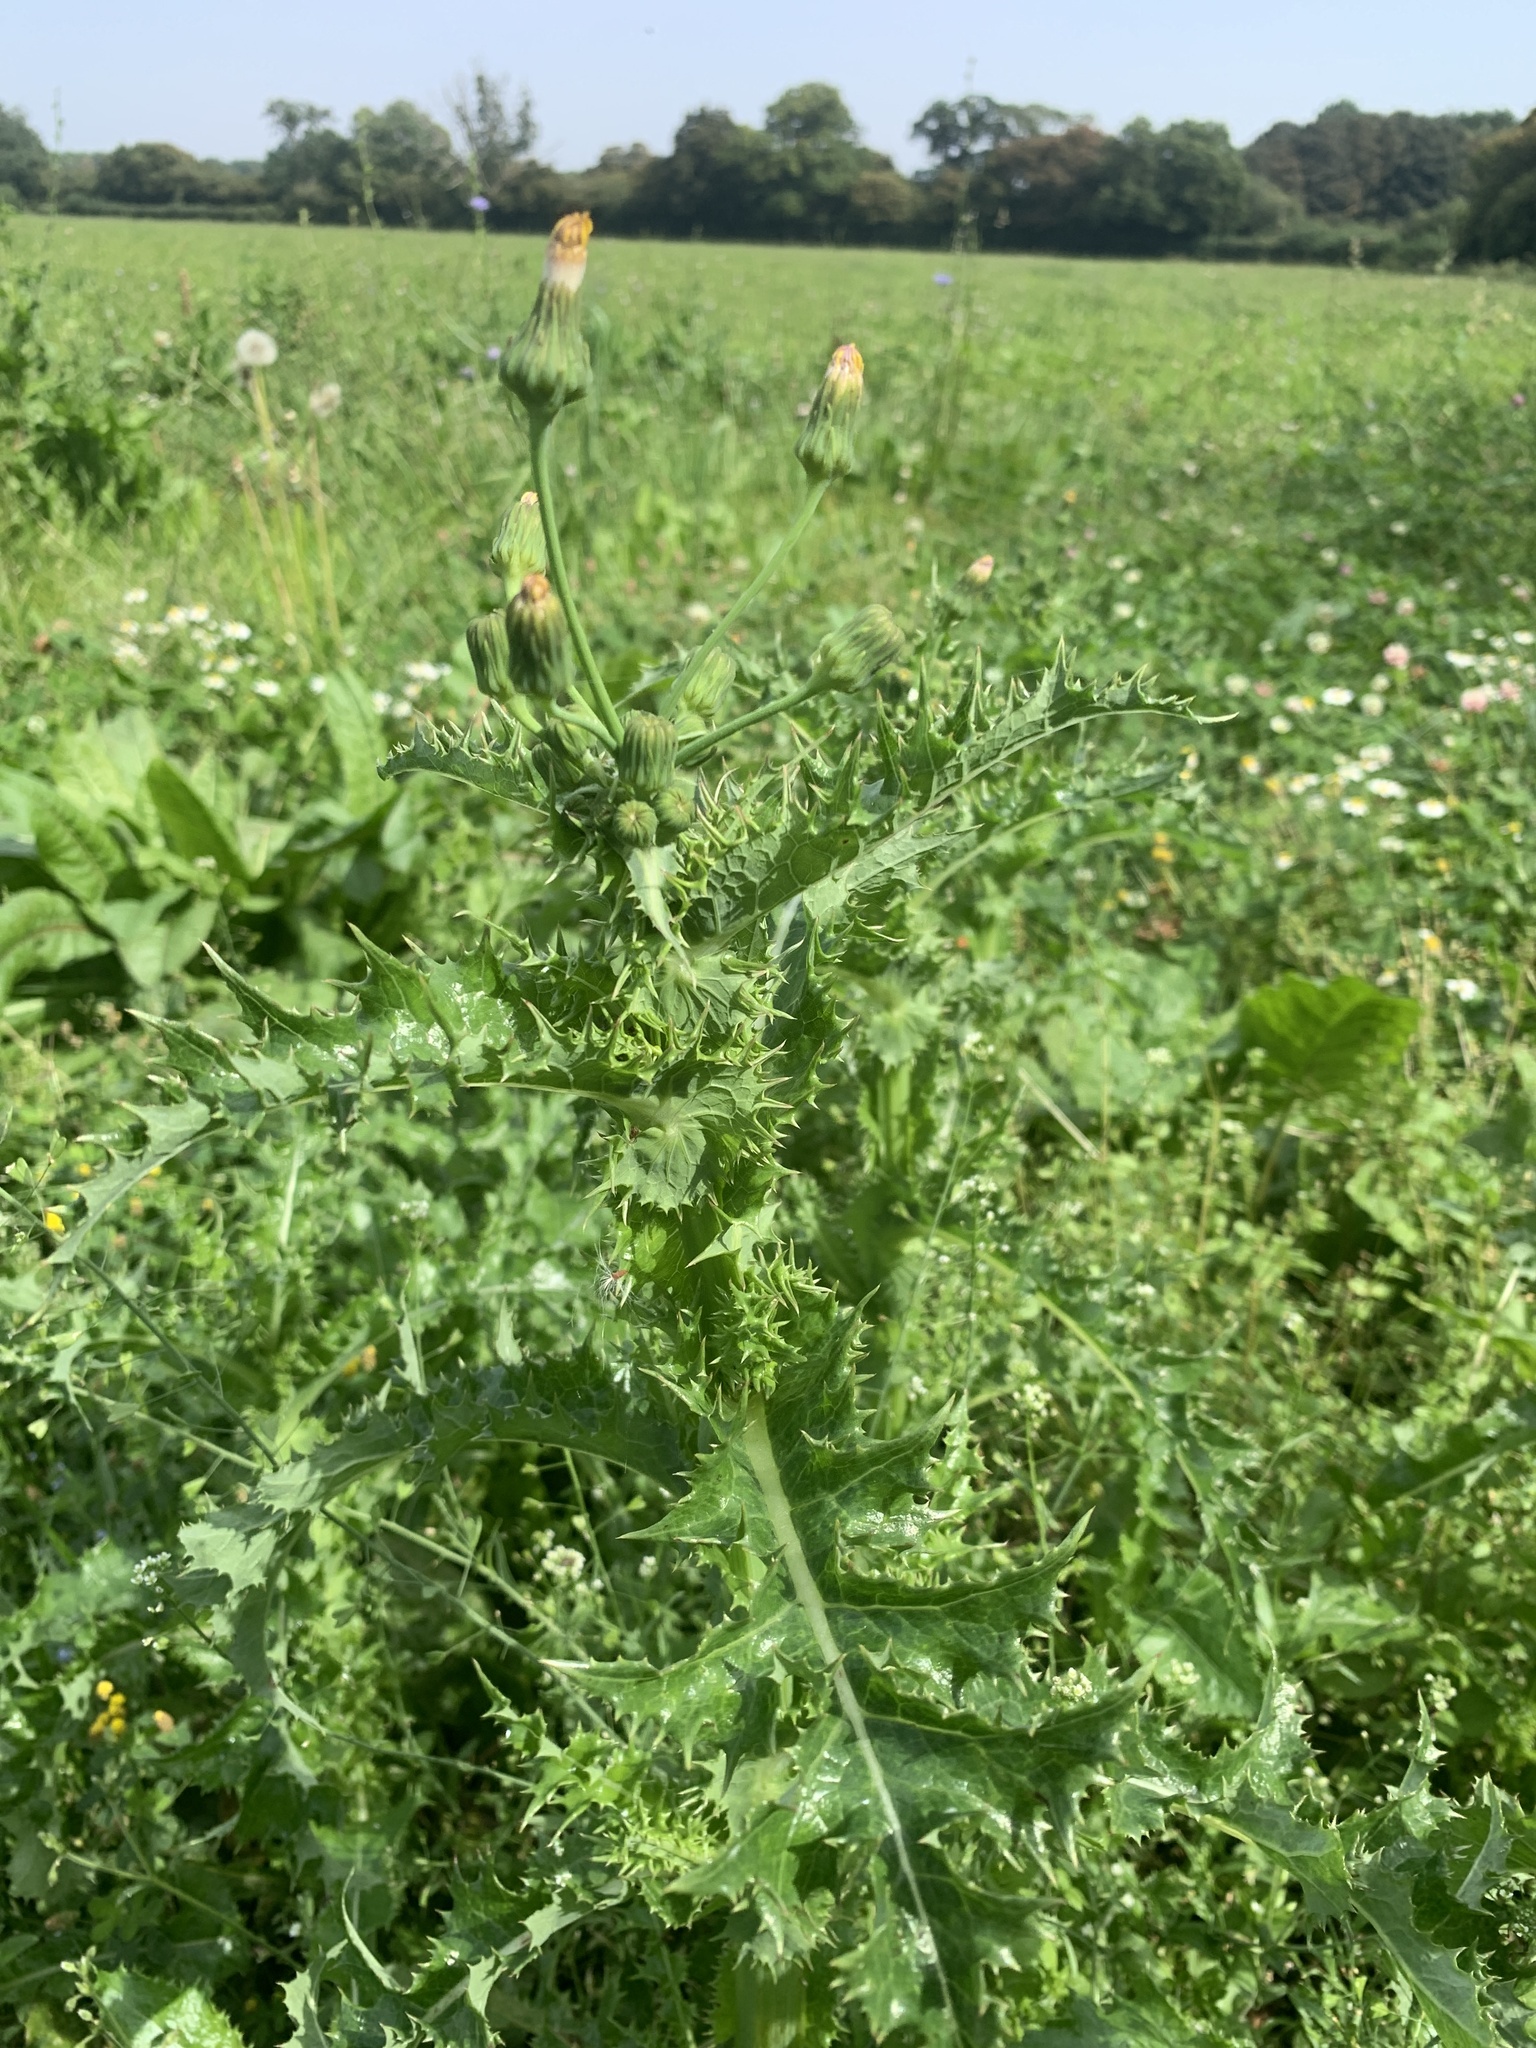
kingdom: Plantae
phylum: Tracheophyta
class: Magnoliopsida
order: Asterales
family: Asteraceae
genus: Sonchus
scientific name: Sonchus asper
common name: Prickly sow-thistle
